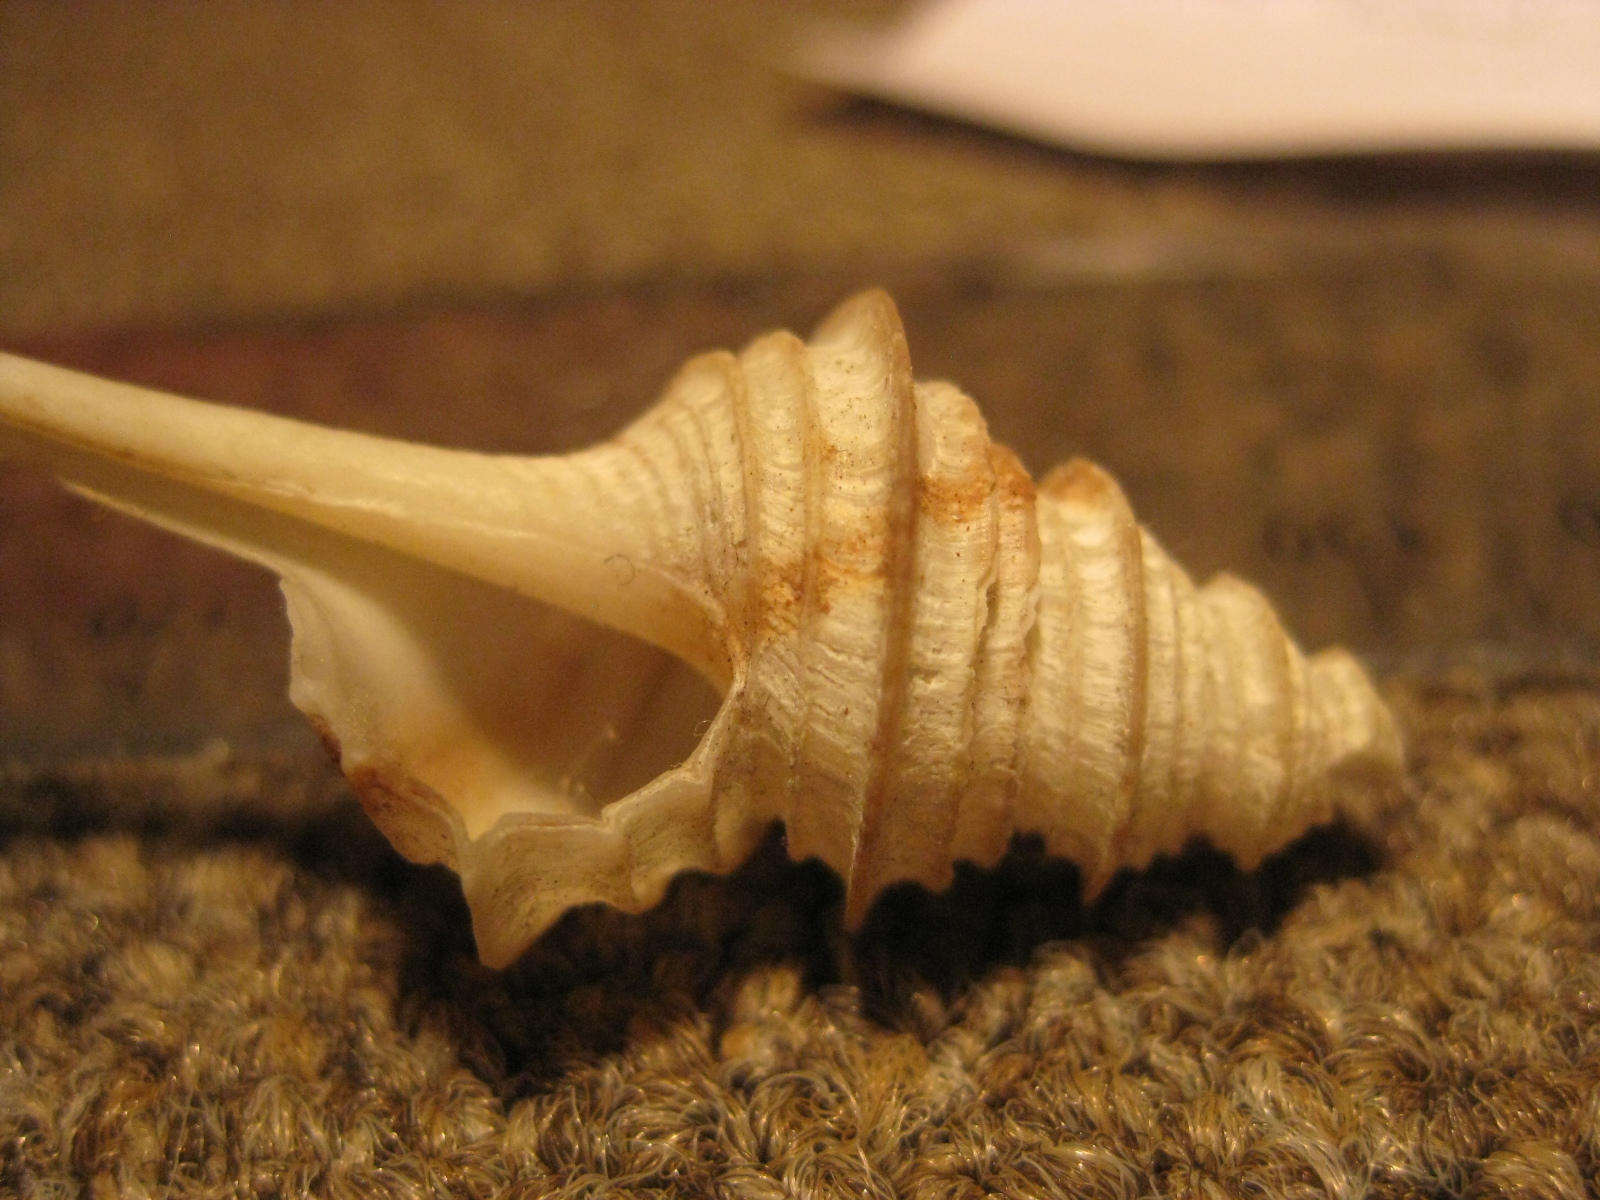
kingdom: Animalia
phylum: Mollusca
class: Gastropoda
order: Neogastropoda
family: Columbariidae
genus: Coluzea
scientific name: Coluzea altocanalis
